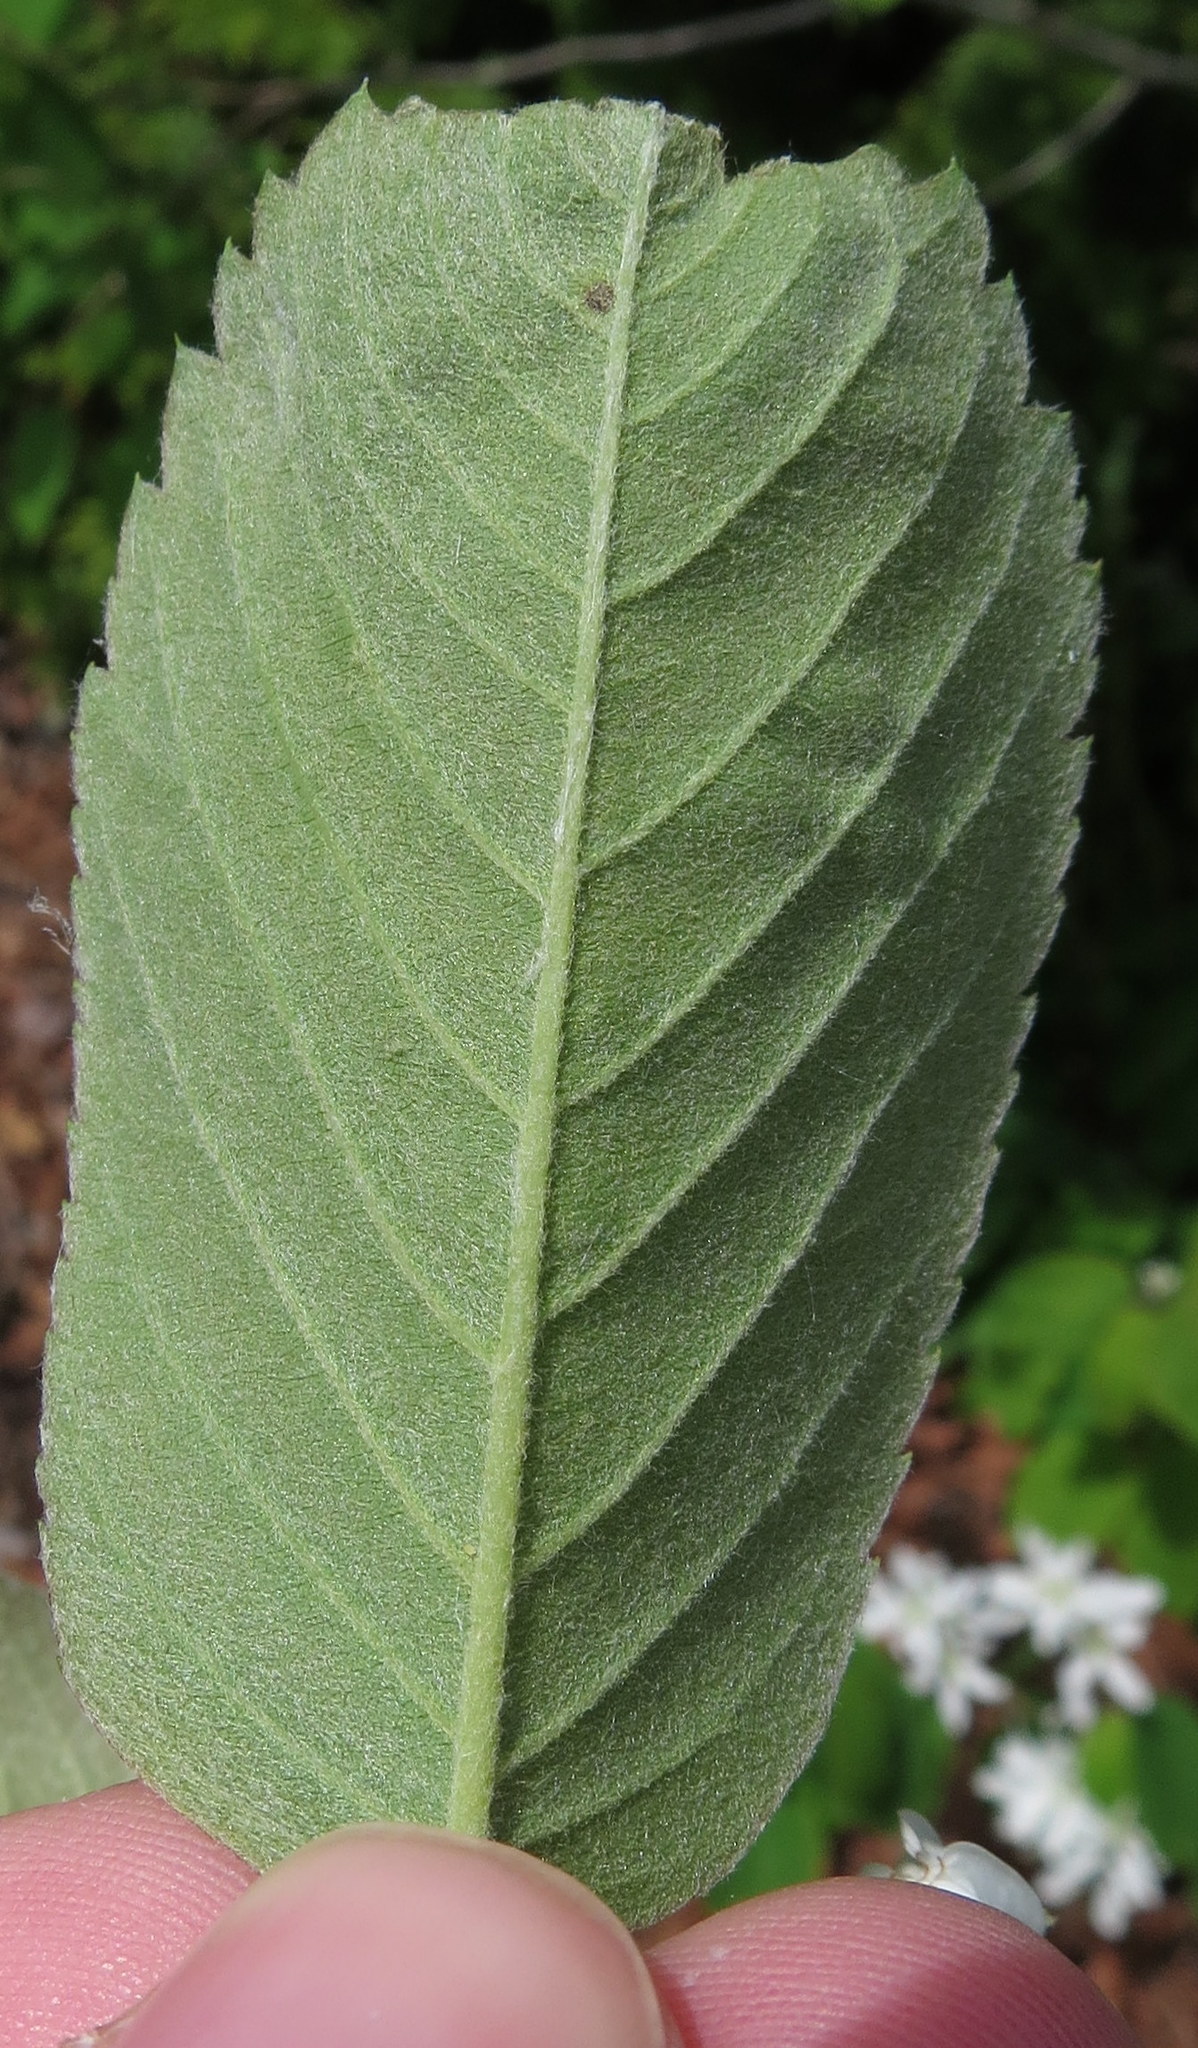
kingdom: Plantae
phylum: Tracheophyta
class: Magnoliopsida
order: Rosales
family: Rosaceae
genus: Amelanchier
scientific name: Amelanchier sanguinea
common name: Huron serviceberry
